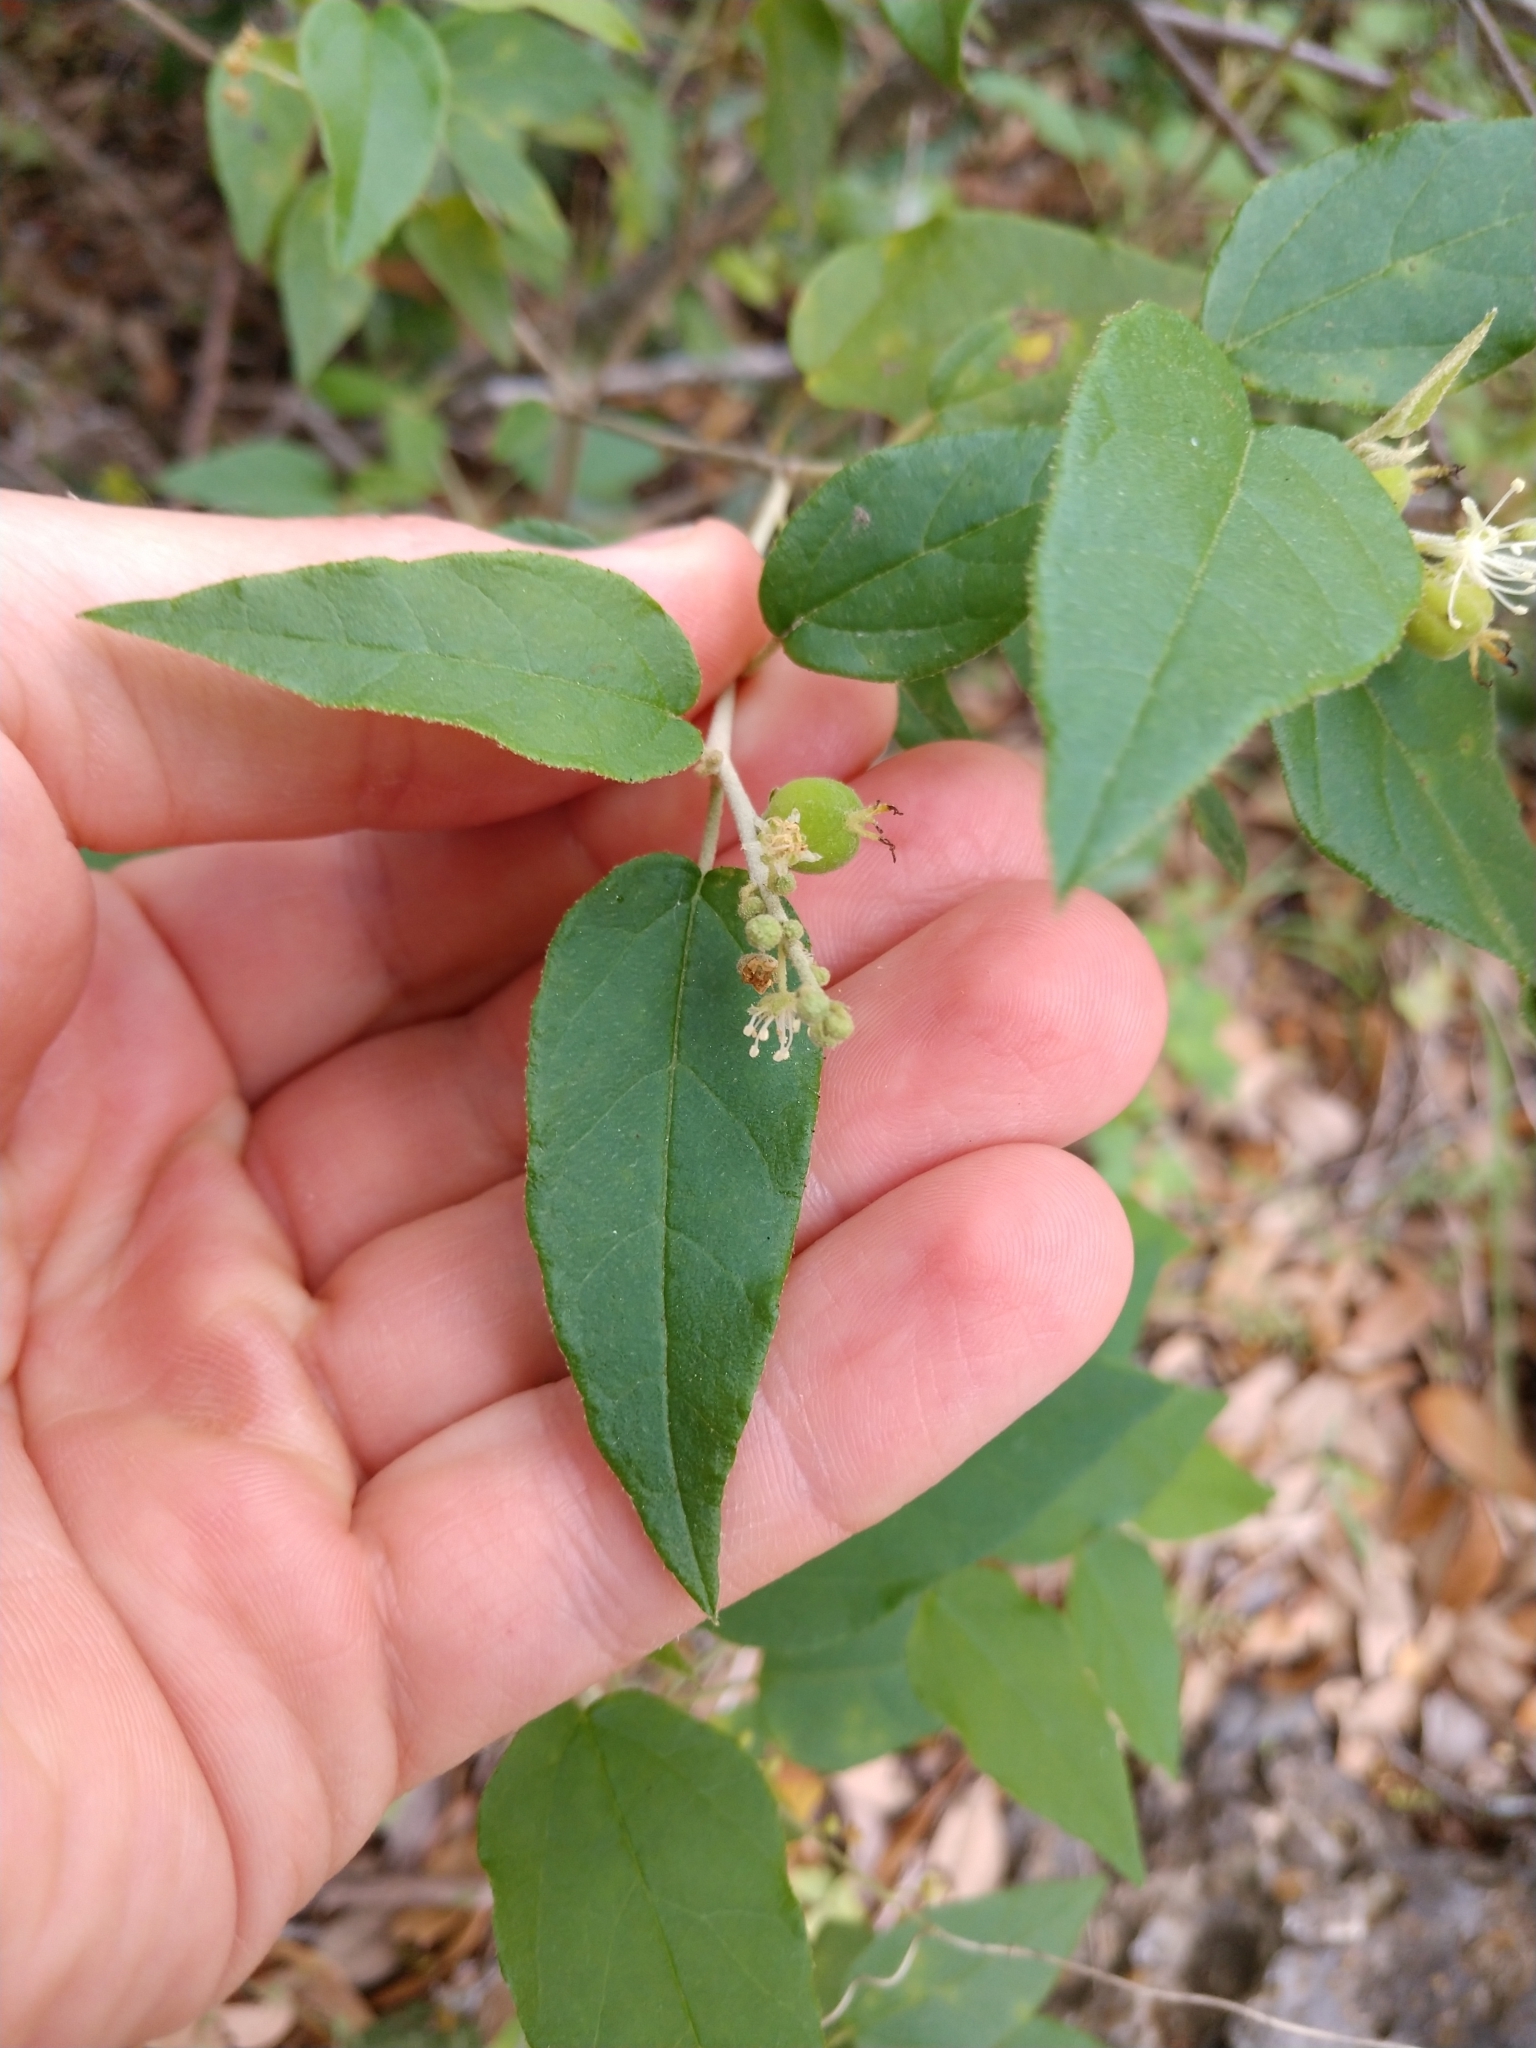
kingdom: Plantae
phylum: Tracheophyta
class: Magnoliopsida
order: Malpighiales
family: Euphorbiaceae
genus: Croton
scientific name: Croton fruticulosus
